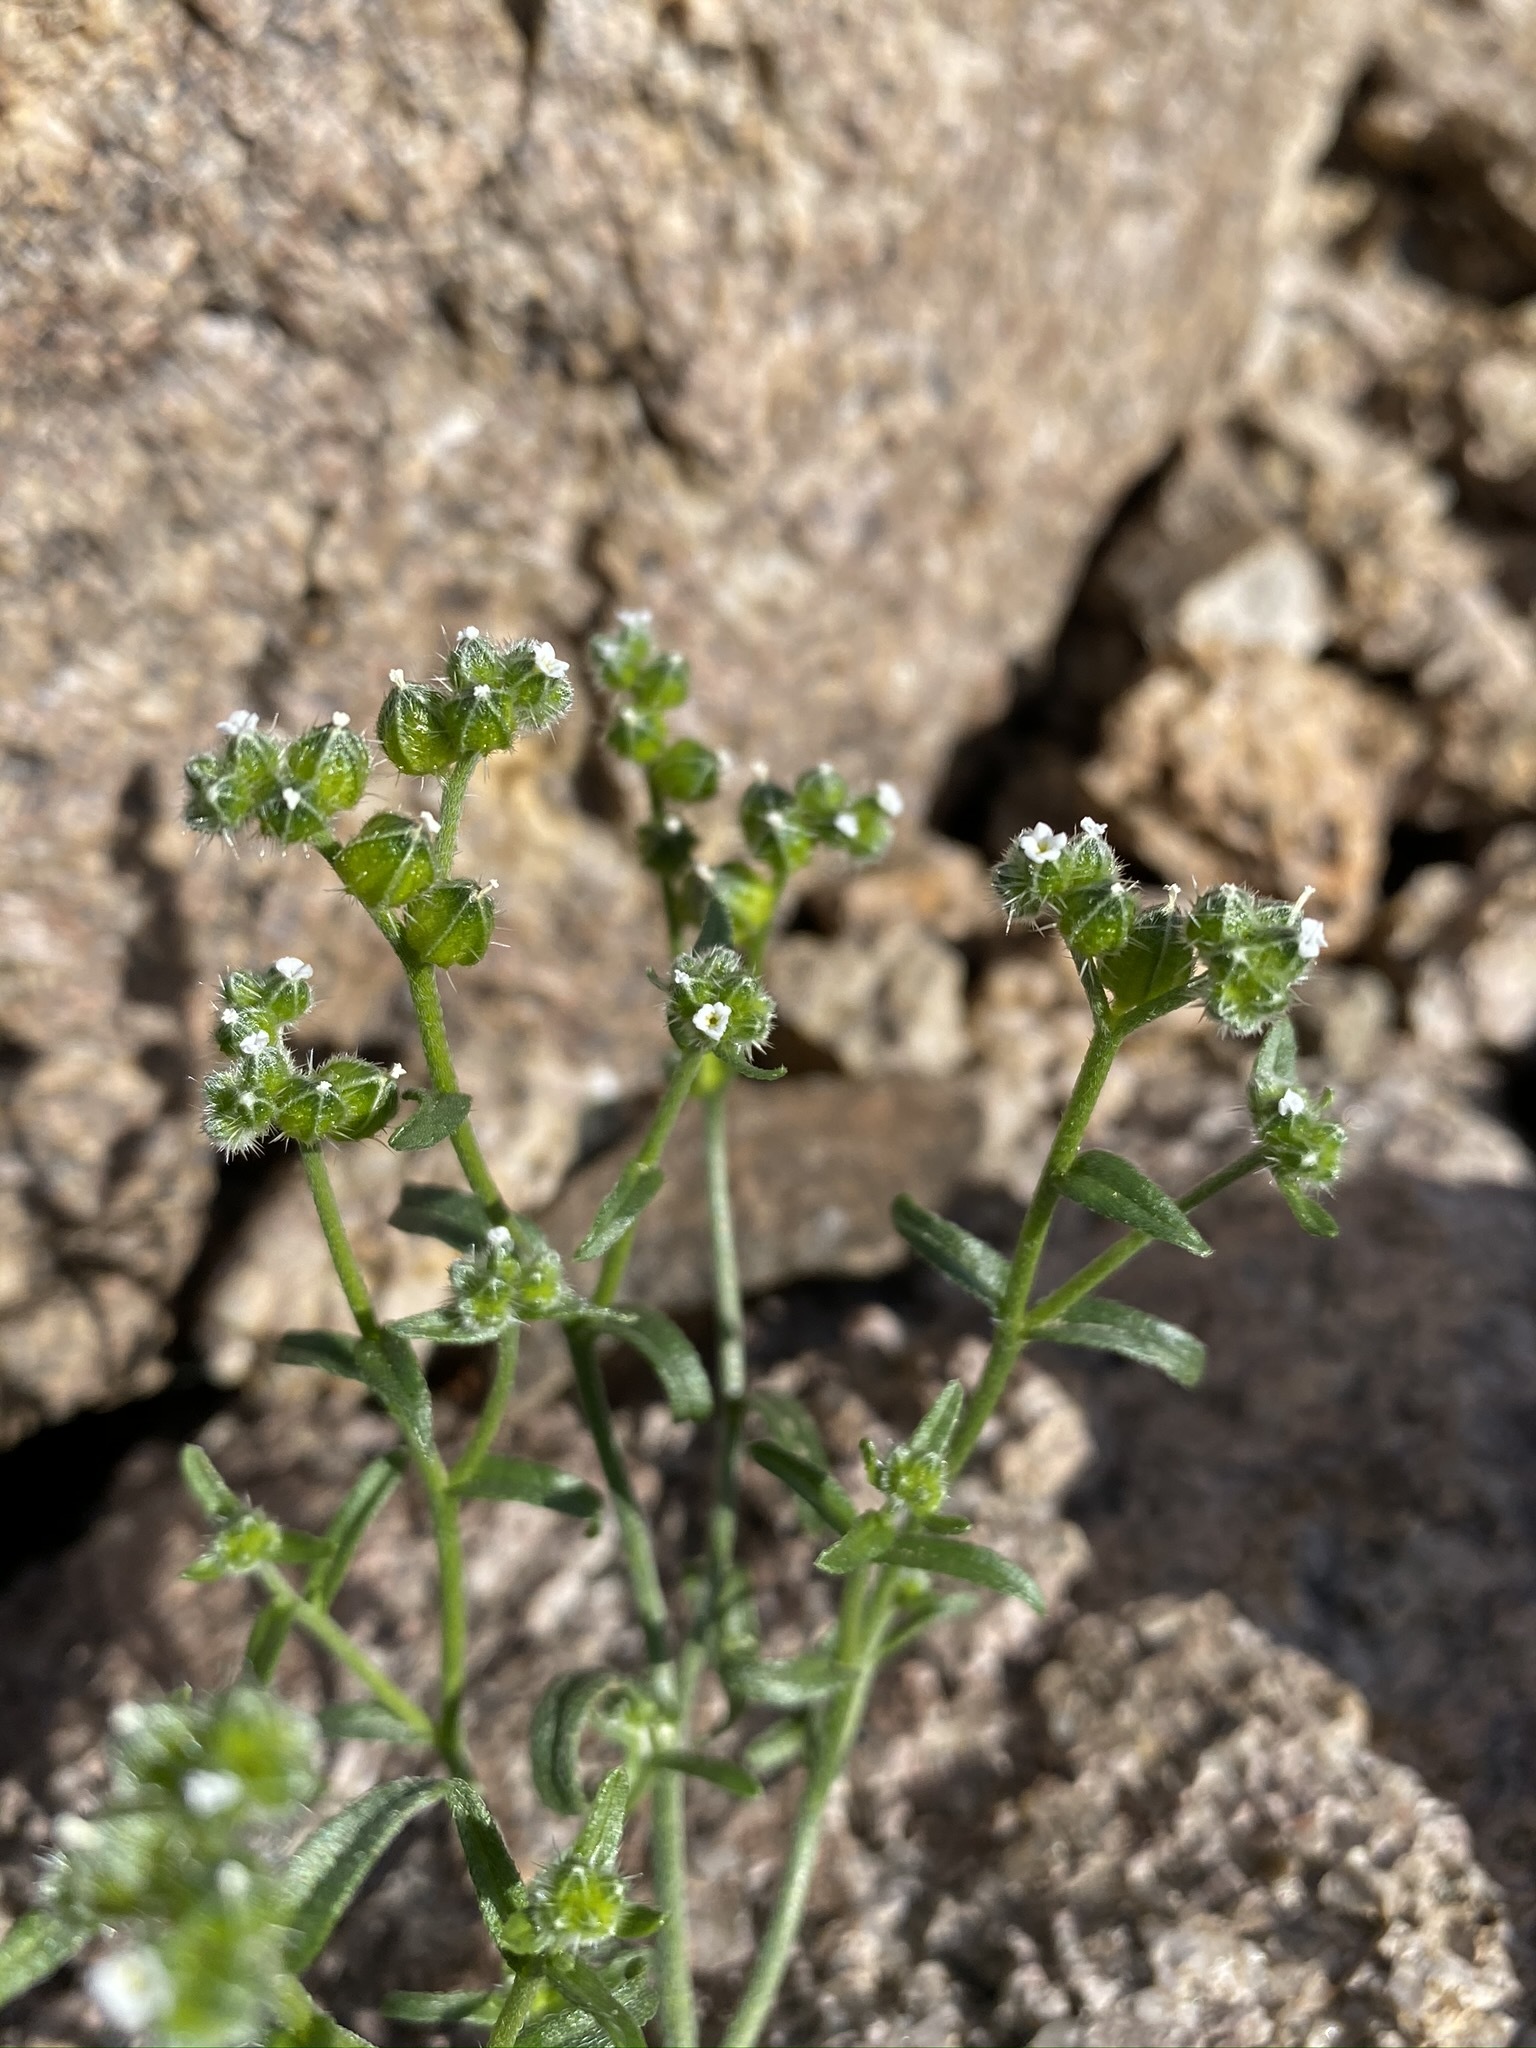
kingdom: Plantae
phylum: Tracheophyta
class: Magnoliopsida
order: Boraginales
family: Boraginaceae
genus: Cryptantha
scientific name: Cryptantha pterocarya
